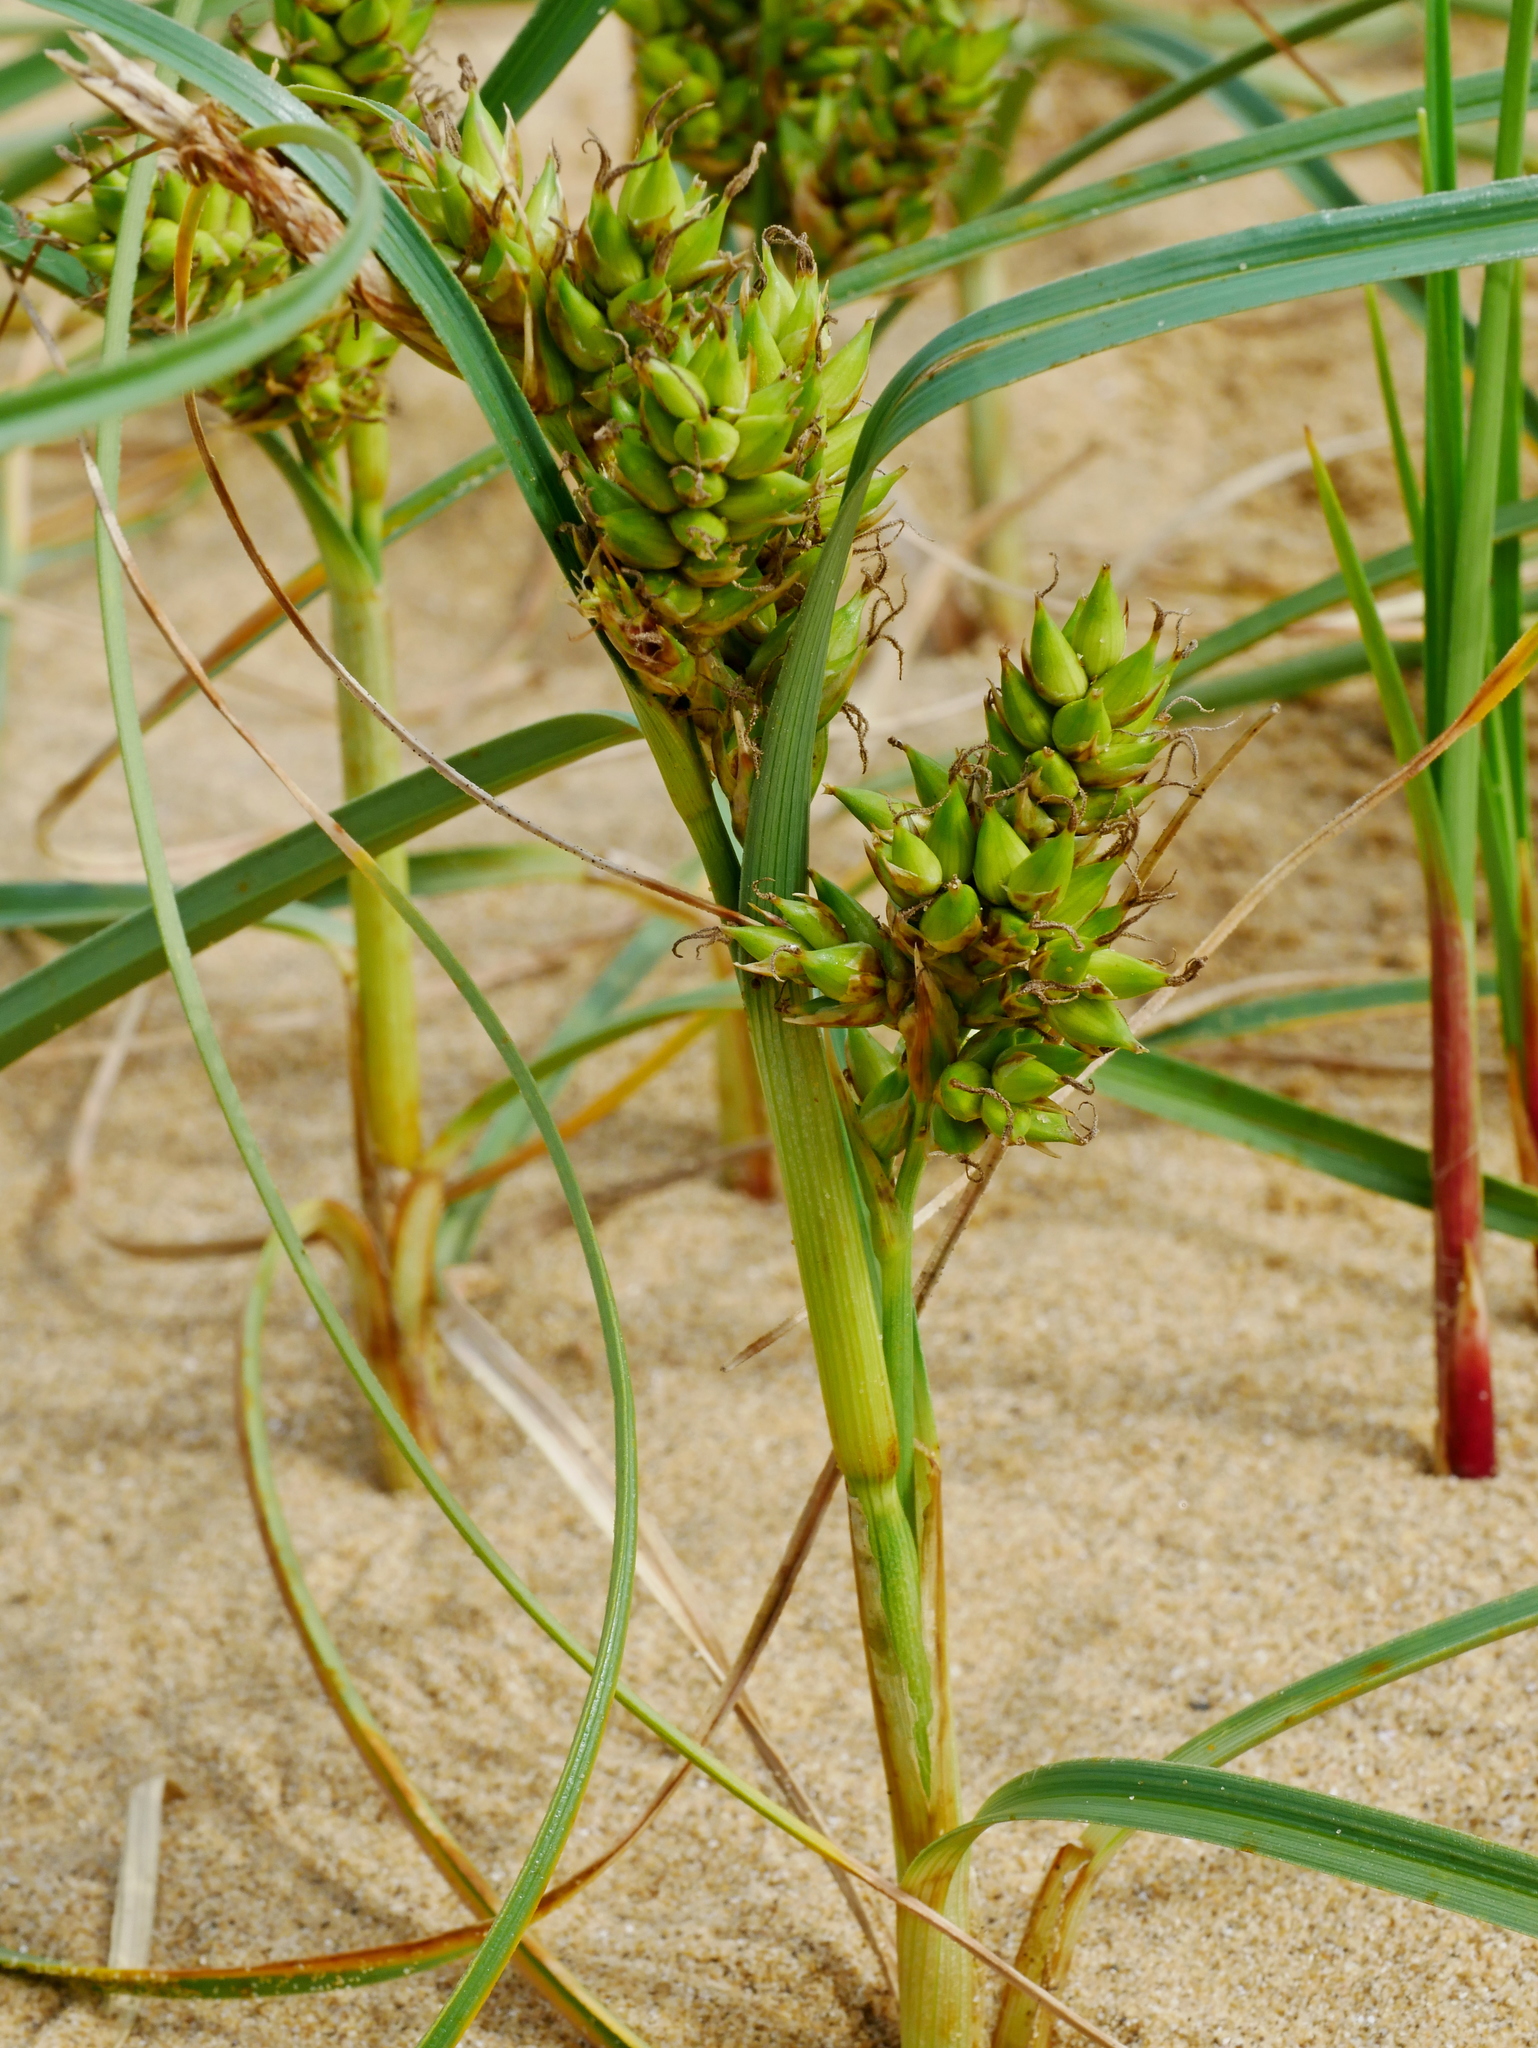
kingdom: Plantae
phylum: Tracheophyta
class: Liliopsida
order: Poales
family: Cyperaceae
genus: Carex
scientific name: Carex pumila
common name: Dwarf sedge
